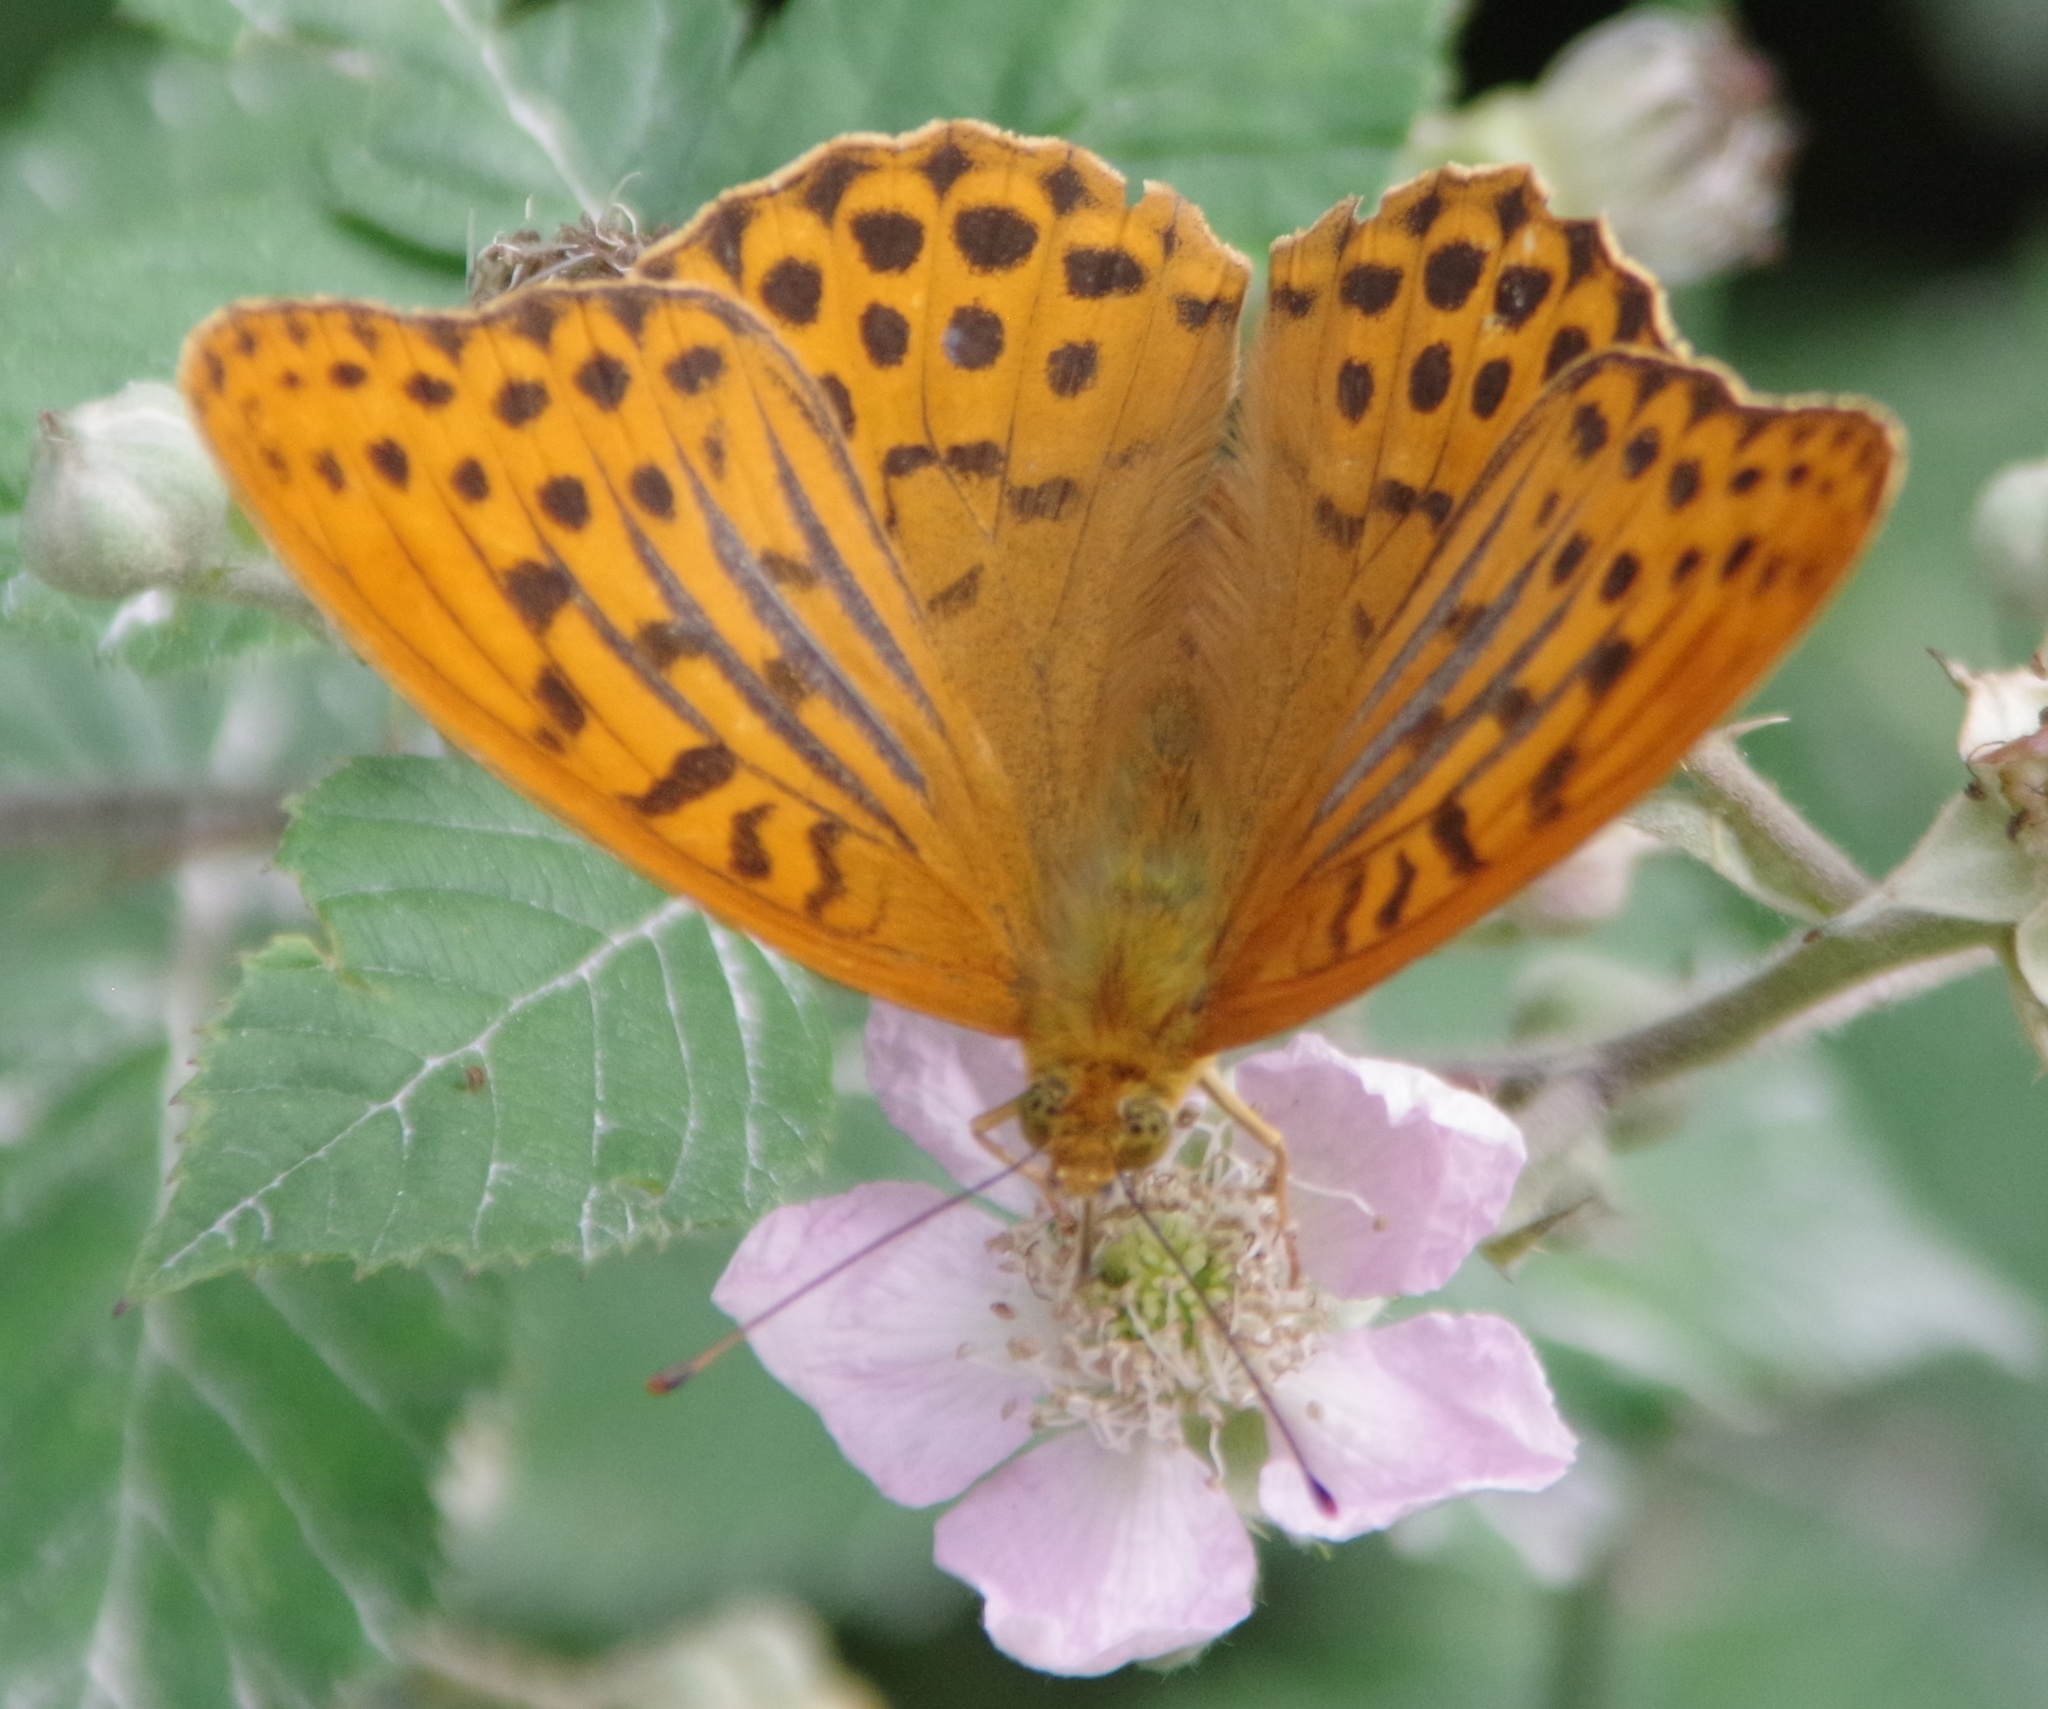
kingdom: Animalia
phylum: Arthropoda
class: Insecta
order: Lepidoptera
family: Nymphalidae
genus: Argynnis
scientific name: Argynnis paphia
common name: Silver-washed fritillary
